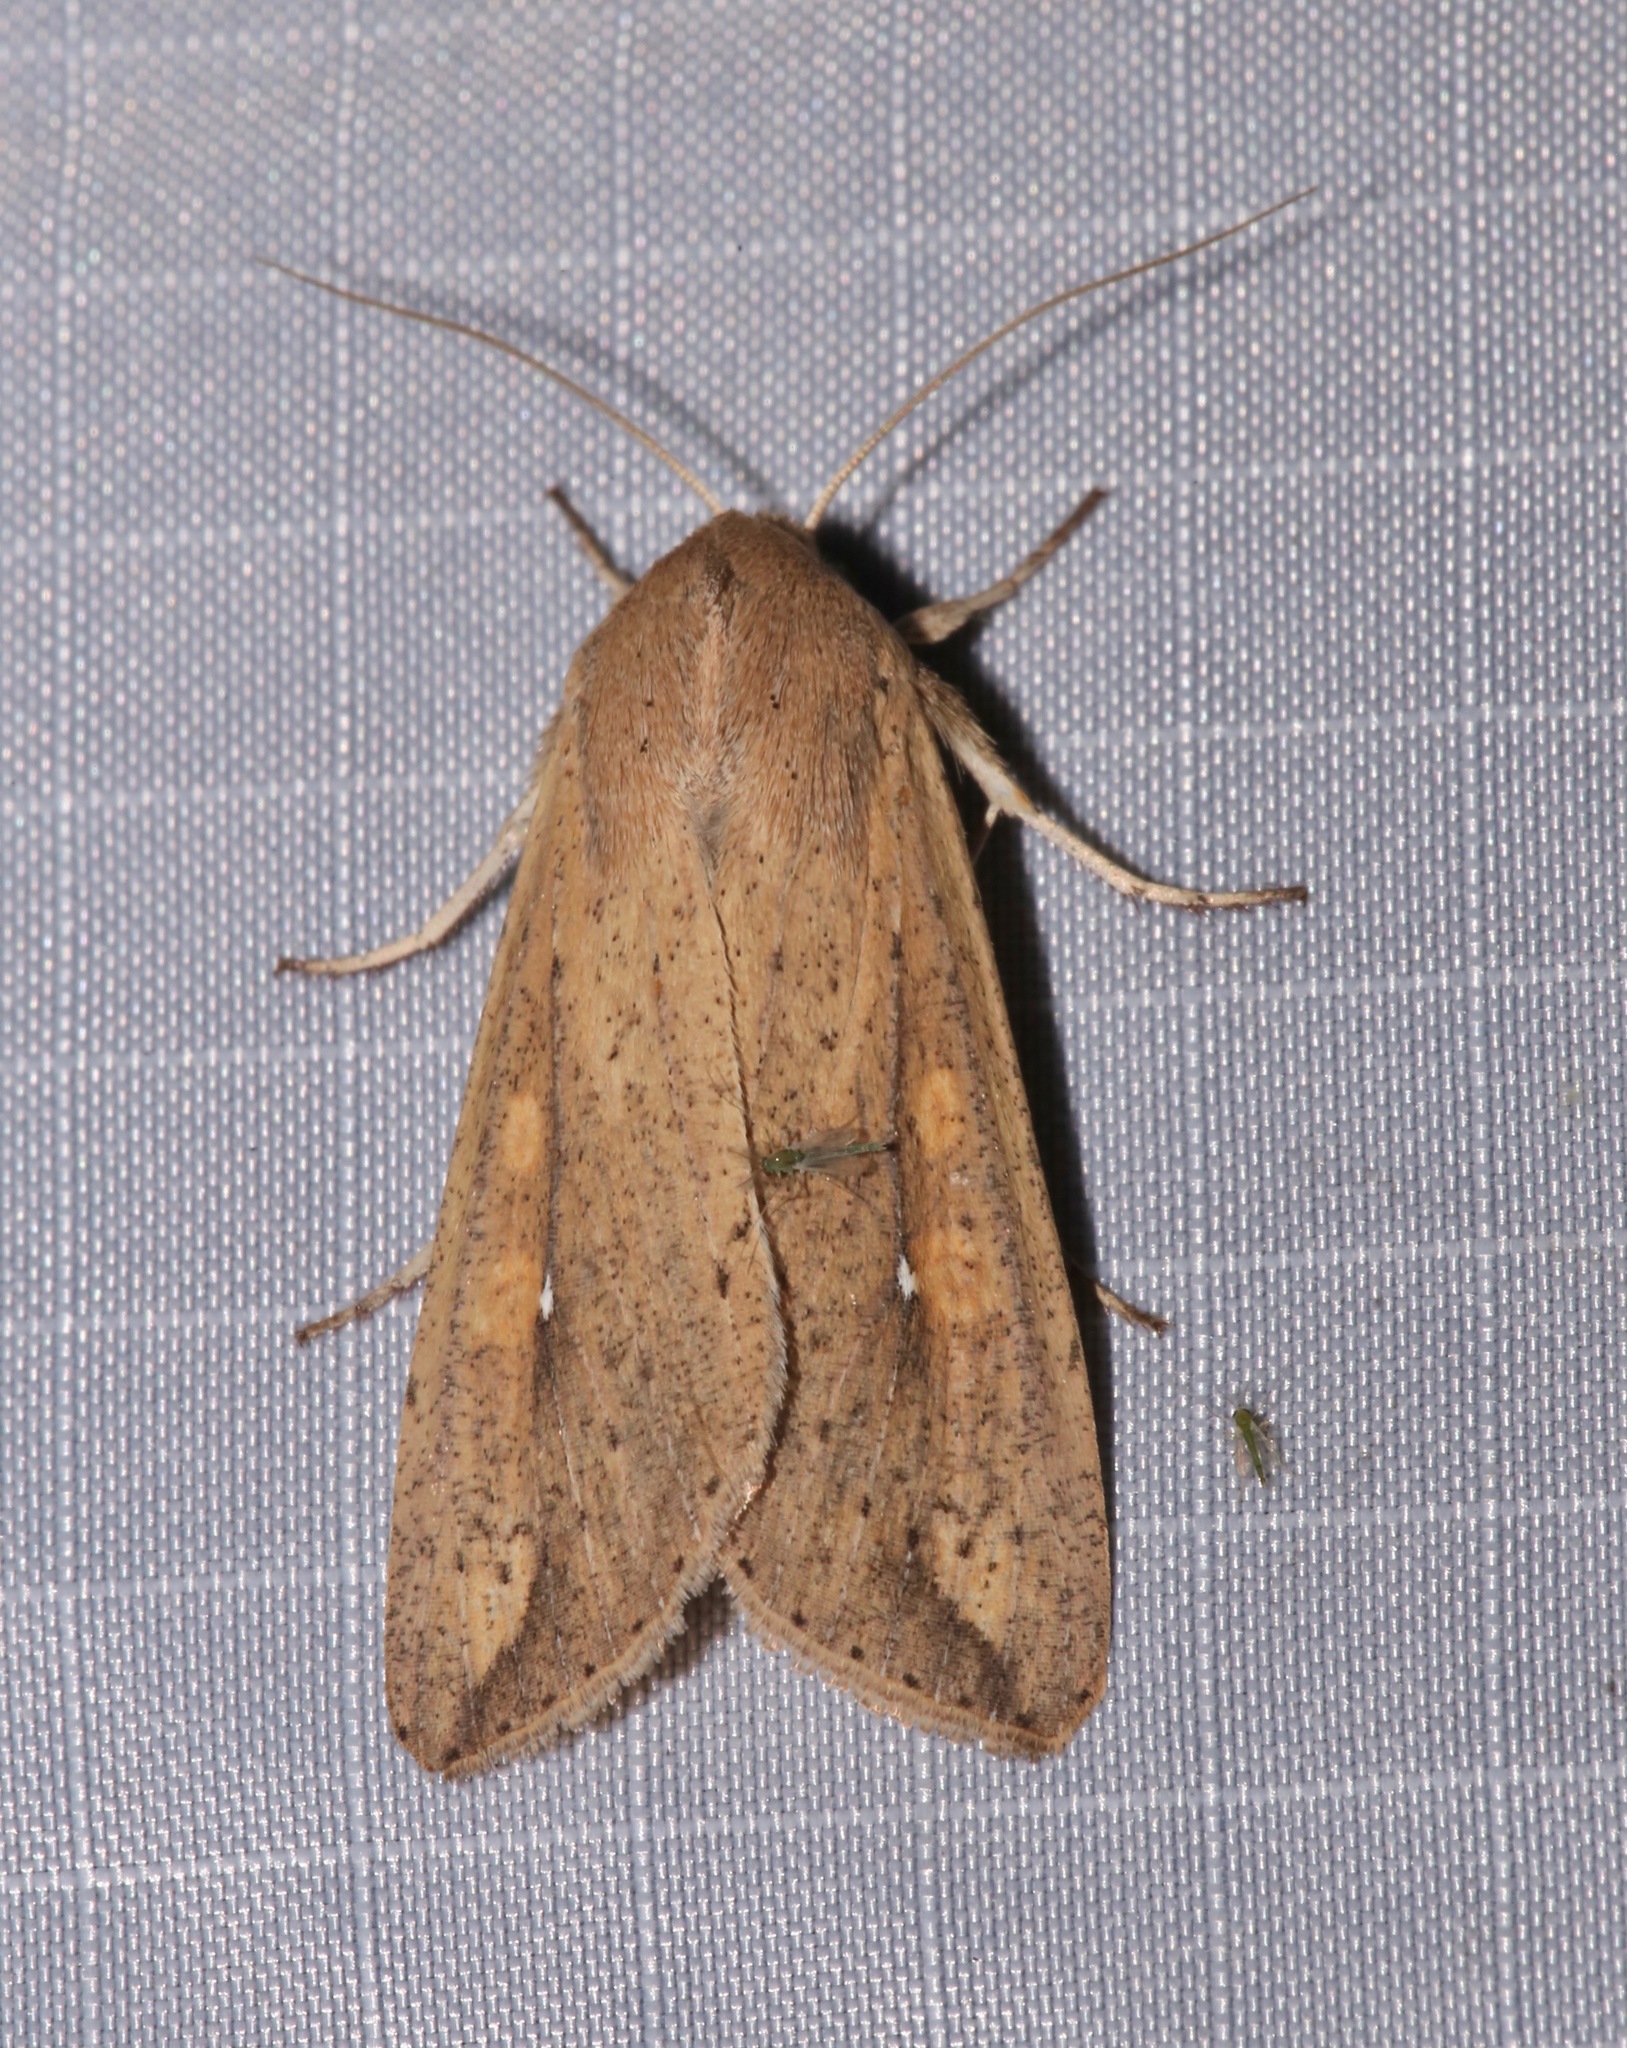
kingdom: Animalia
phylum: Arthropoda
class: Insecta
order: Lepidoptera
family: Noctuidae
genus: Mythimna
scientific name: Mythimna unipuncta
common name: White-speck
